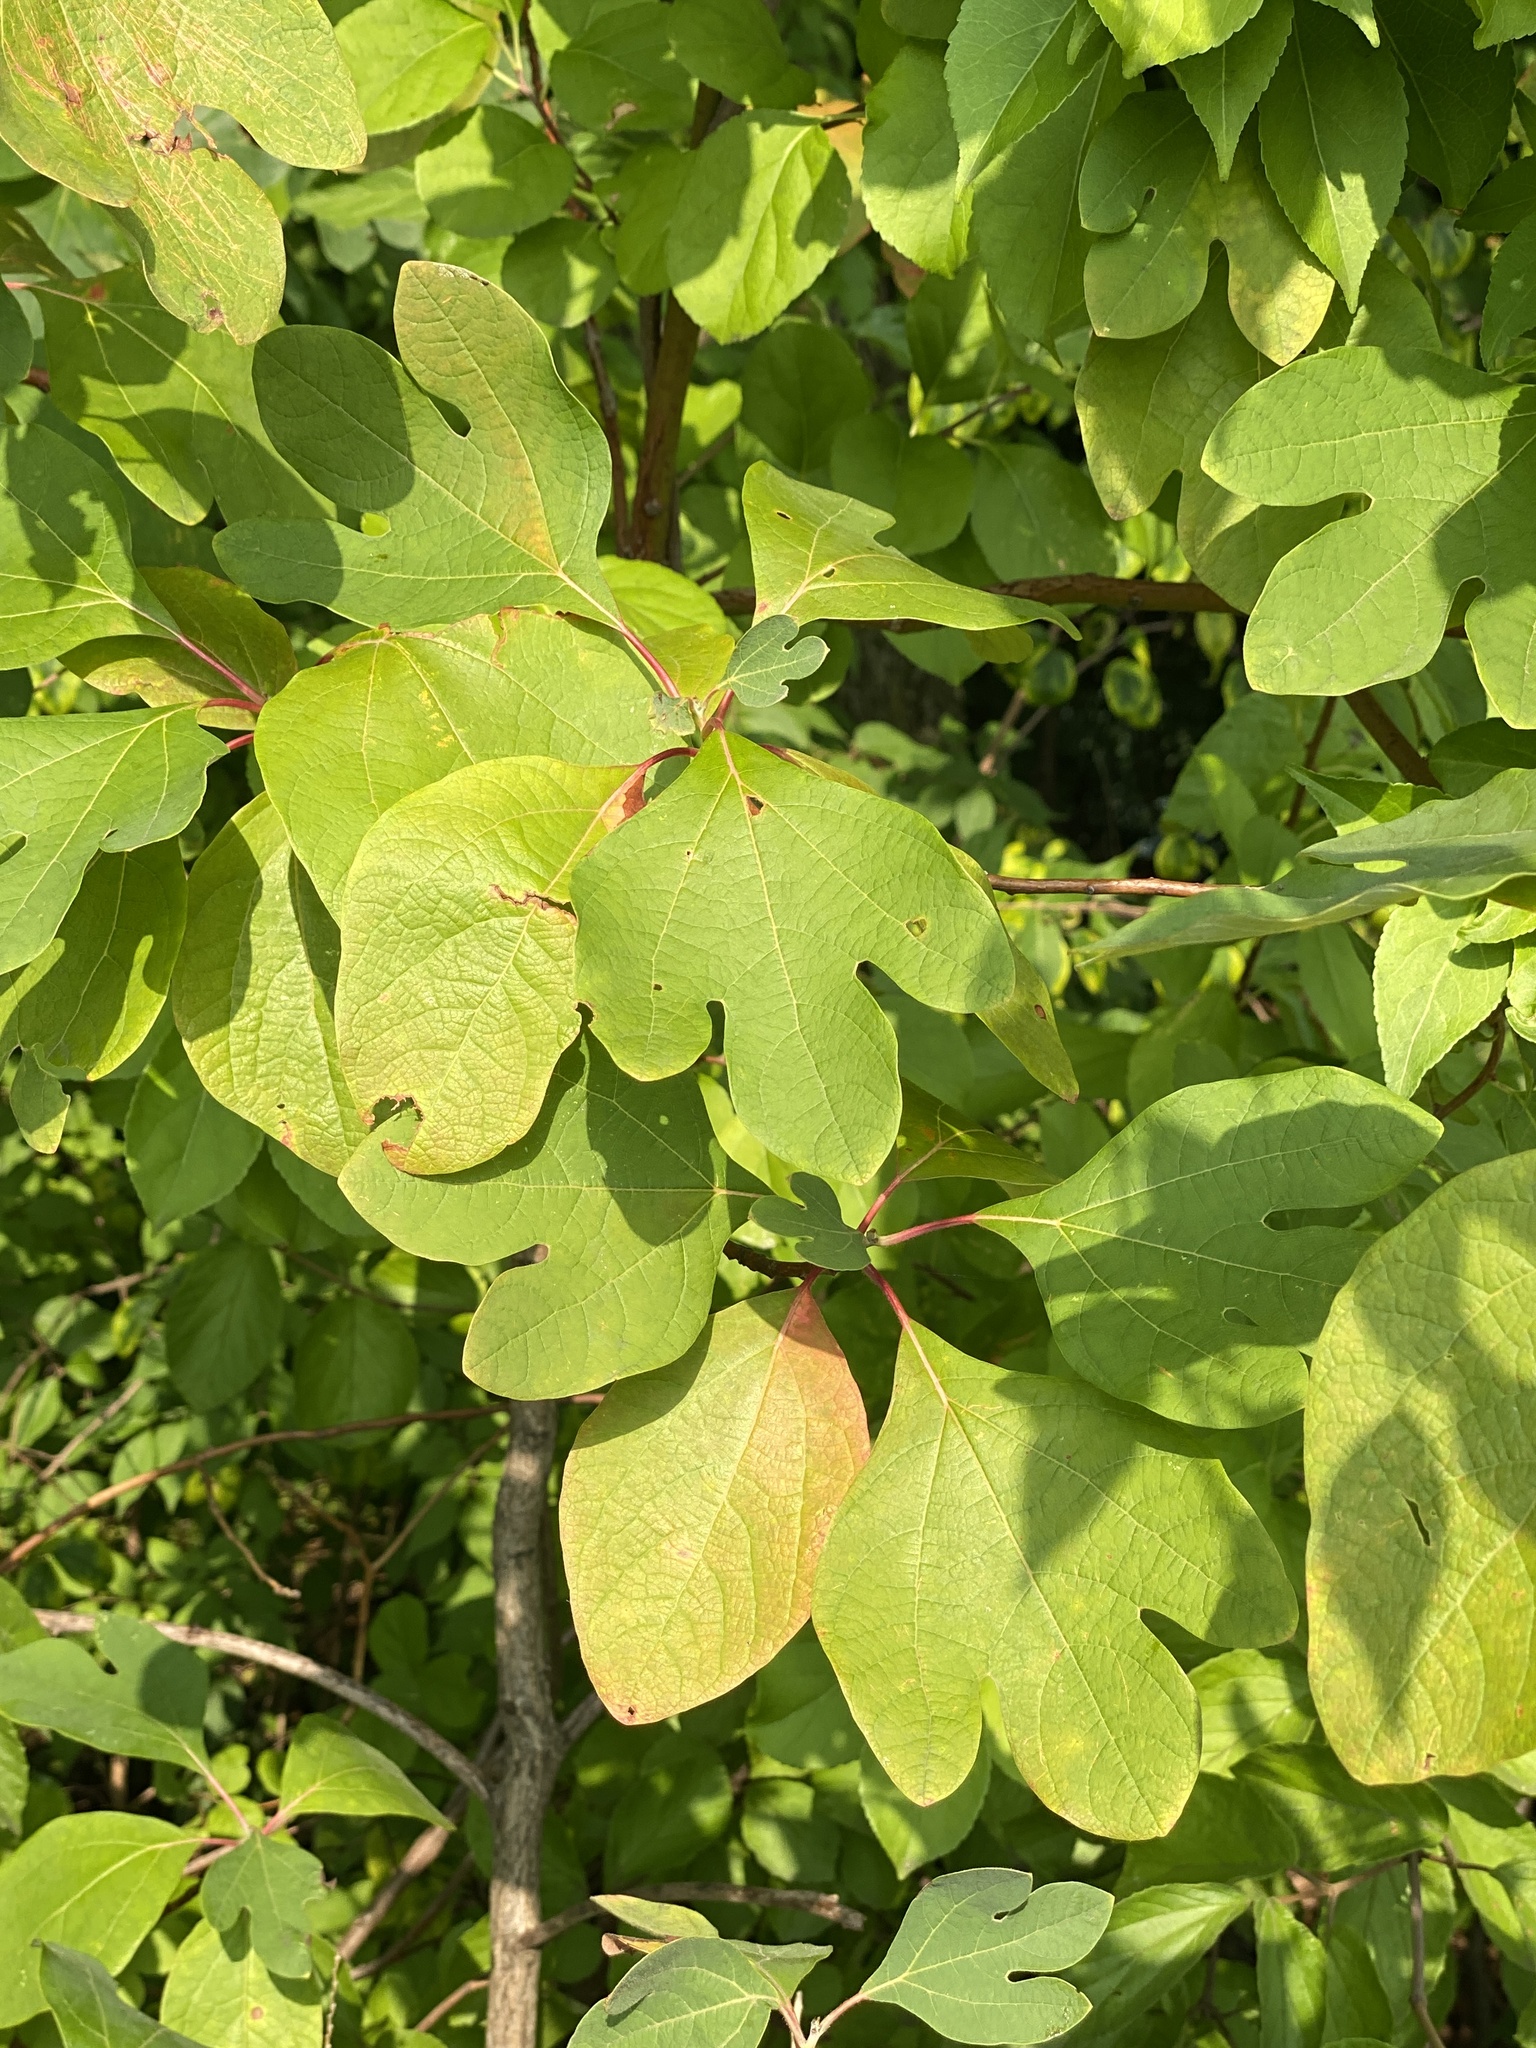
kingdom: Plantae
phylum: Tracheophyta
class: Magnoliopsida
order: Laurales
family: Lauraceae
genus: Sassafras
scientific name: Sassafras albidum
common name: Sassafras
